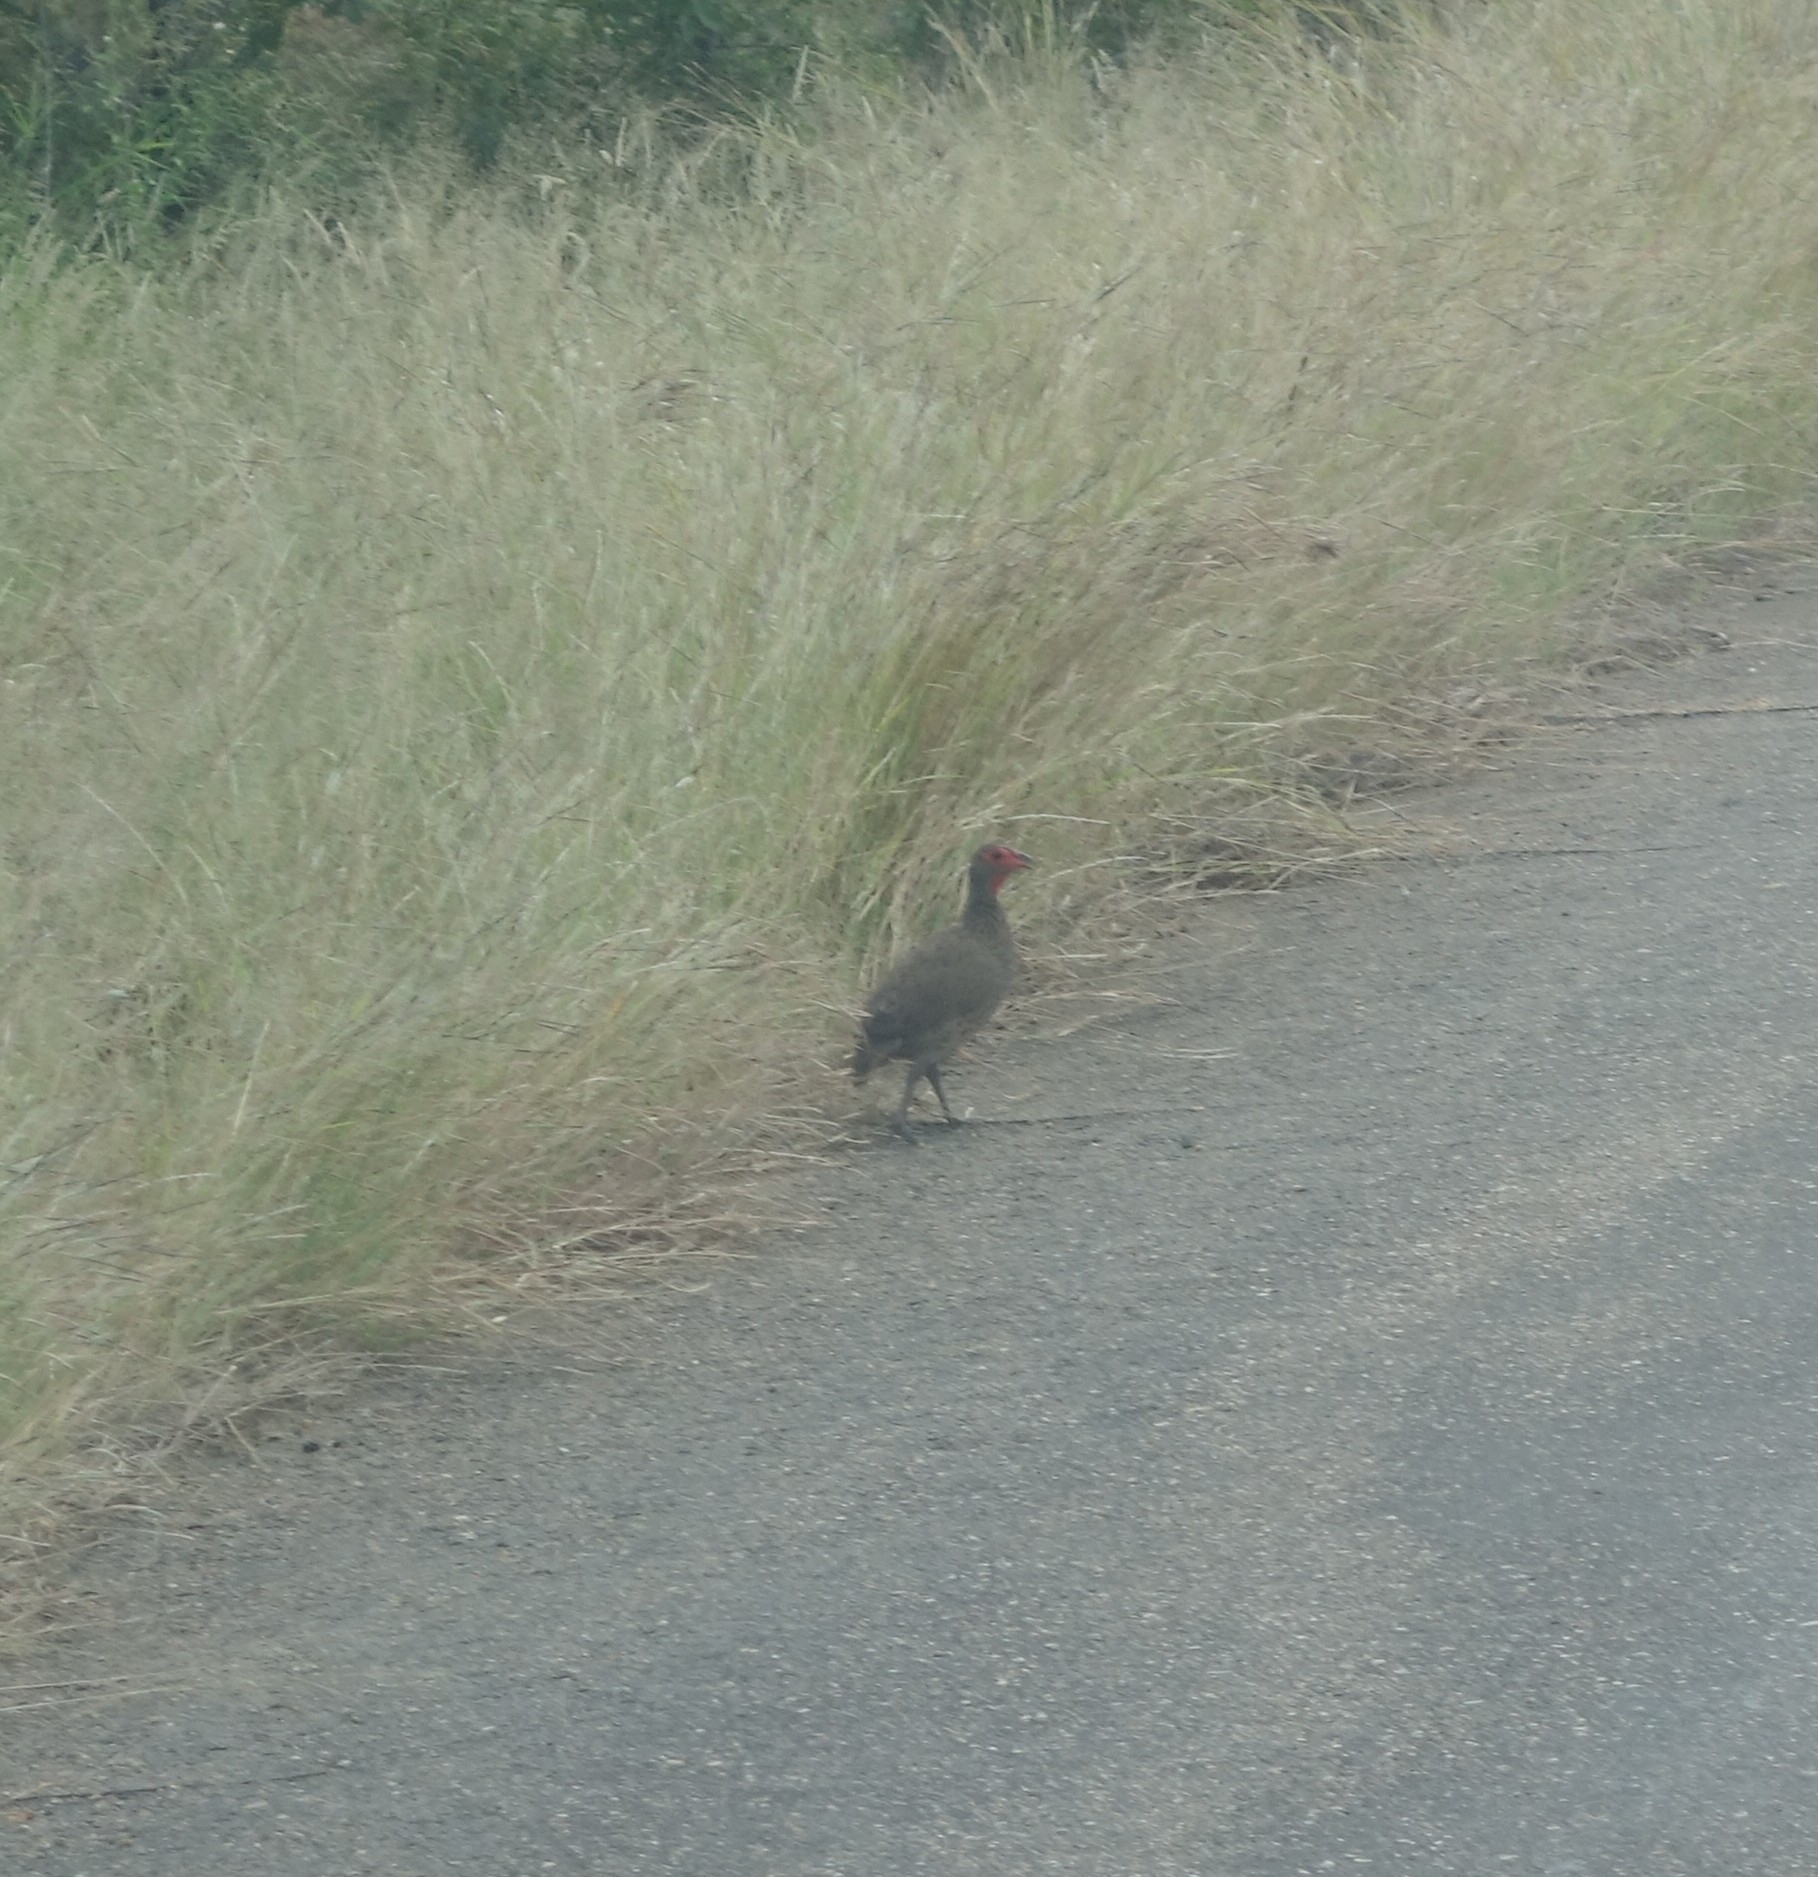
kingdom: Animalia
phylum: Chordata
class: Aves
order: Galliformes
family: Phasianidae
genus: Pternistis
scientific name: Pternistis swainsonii
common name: Swainson's spurfowl
